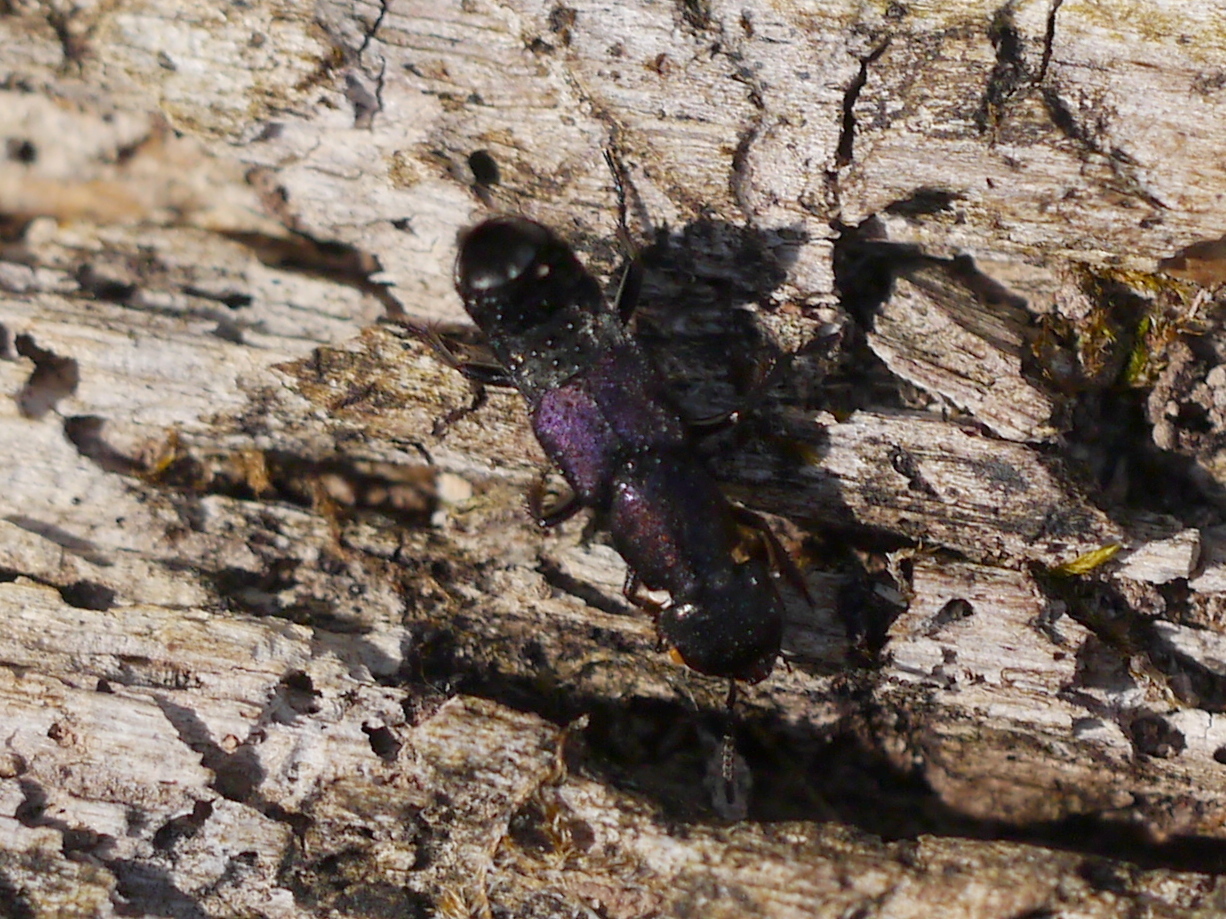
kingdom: Animalia
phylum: Arthropoda
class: Insecta
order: Coleoptera
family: Staphylinidae
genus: Platydracus
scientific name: Platydracus violaceus
